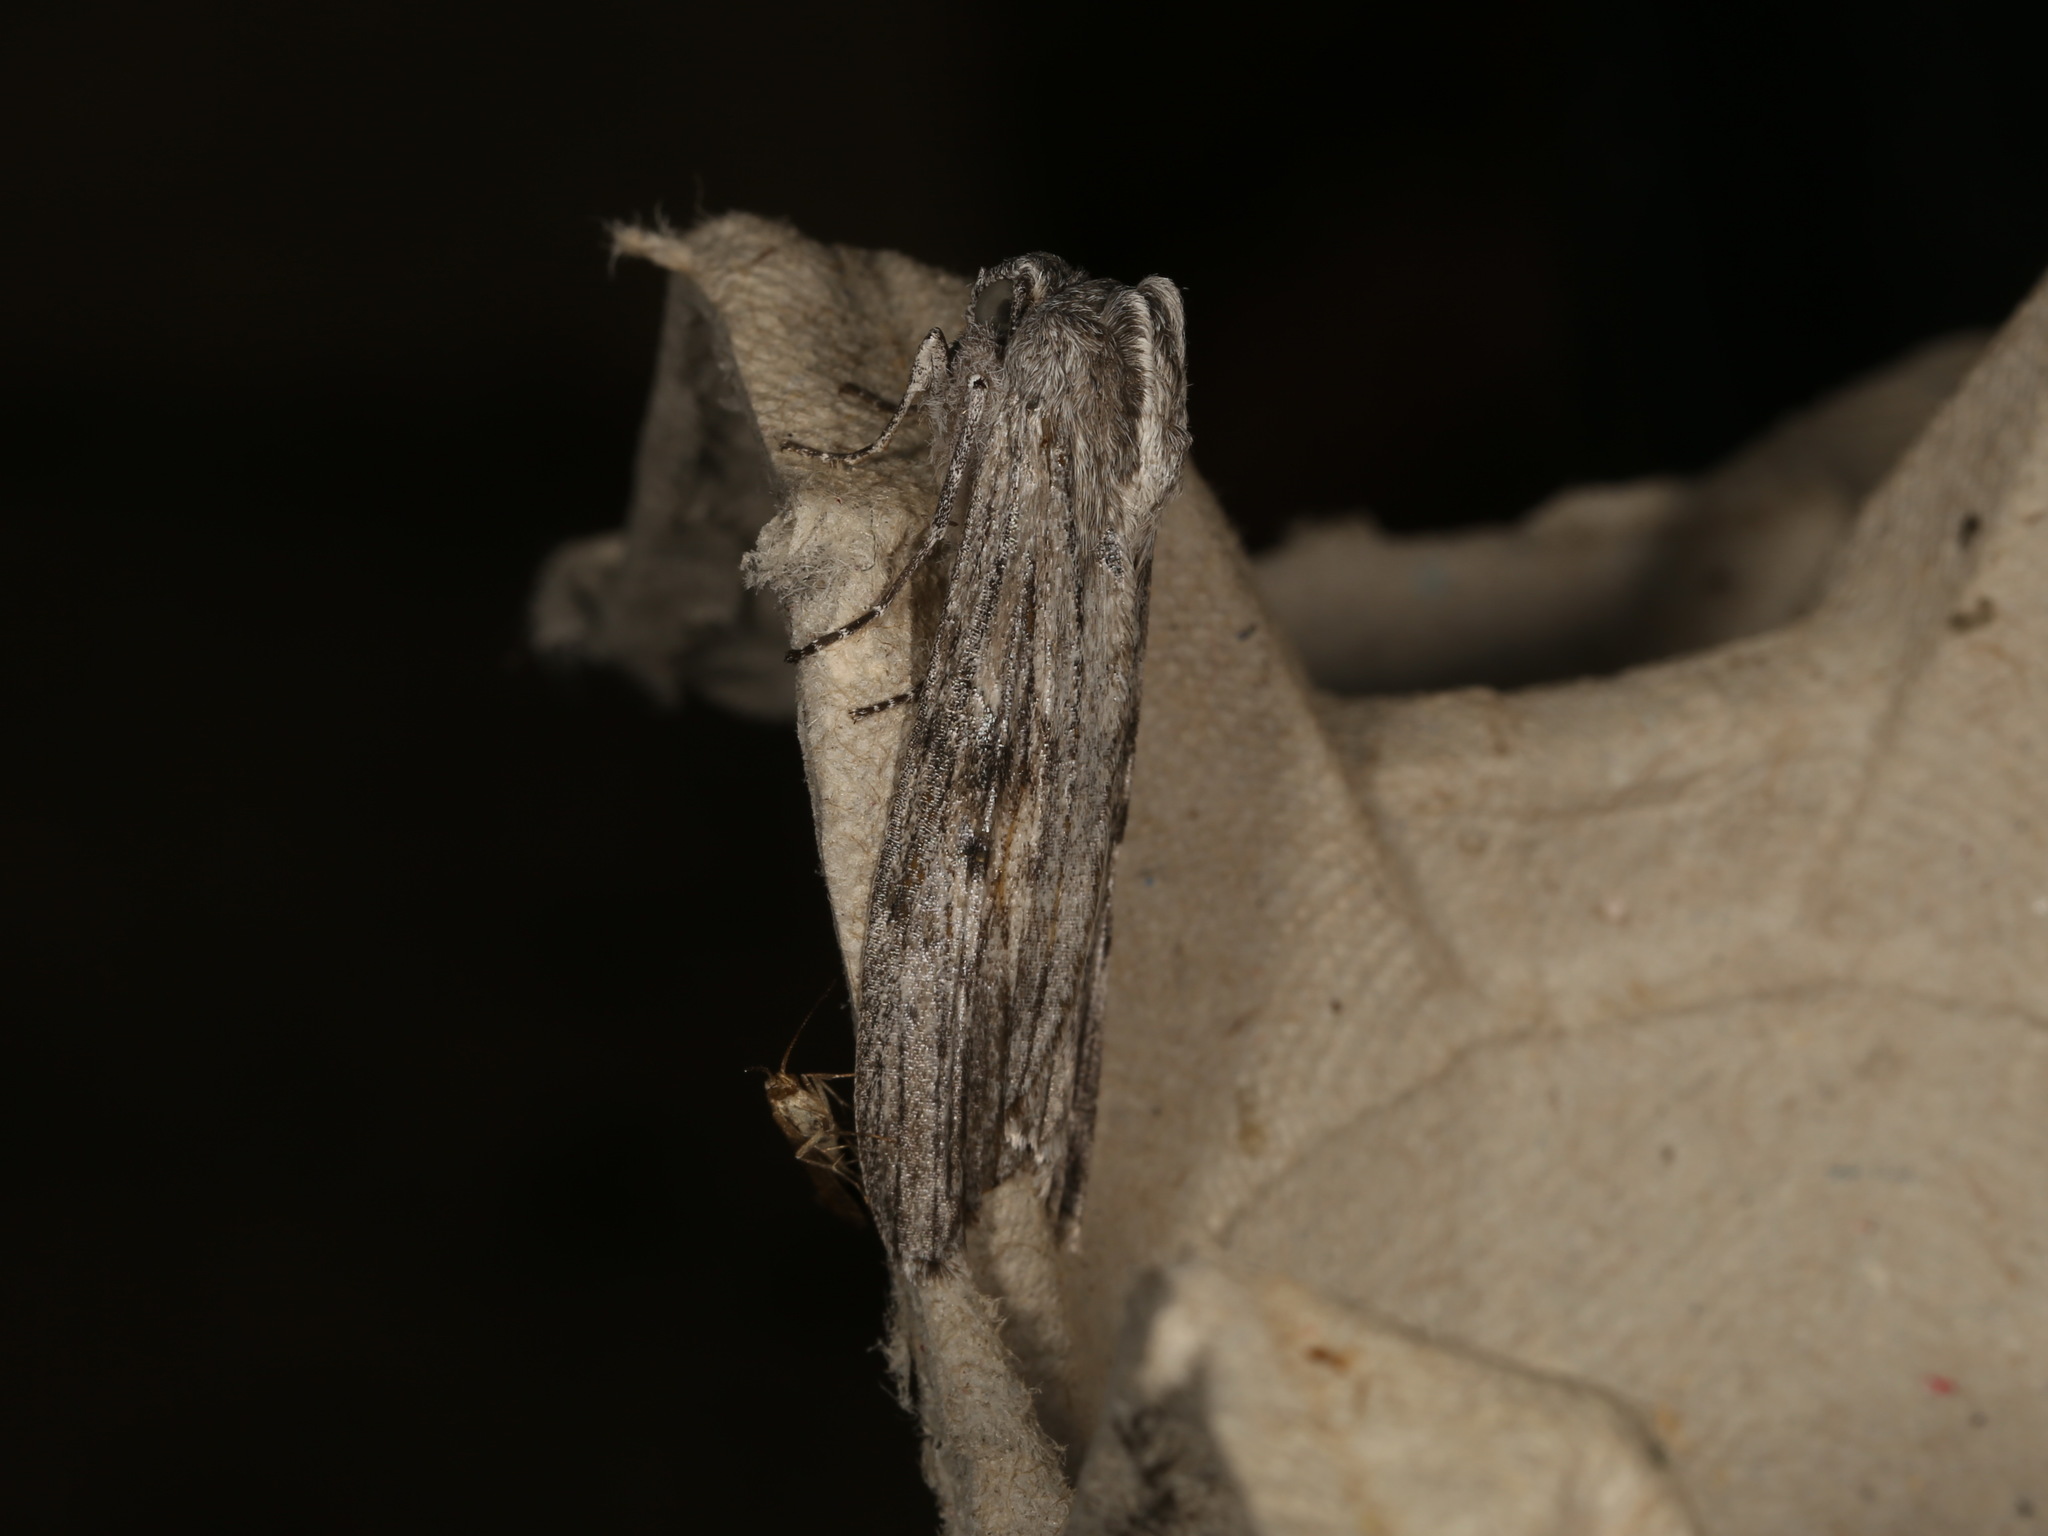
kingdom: Animalia
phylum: Arthropoda
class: Insecta
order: Lepidoptera
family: Geometridae
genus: Capusa
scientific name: Capusa senilis
